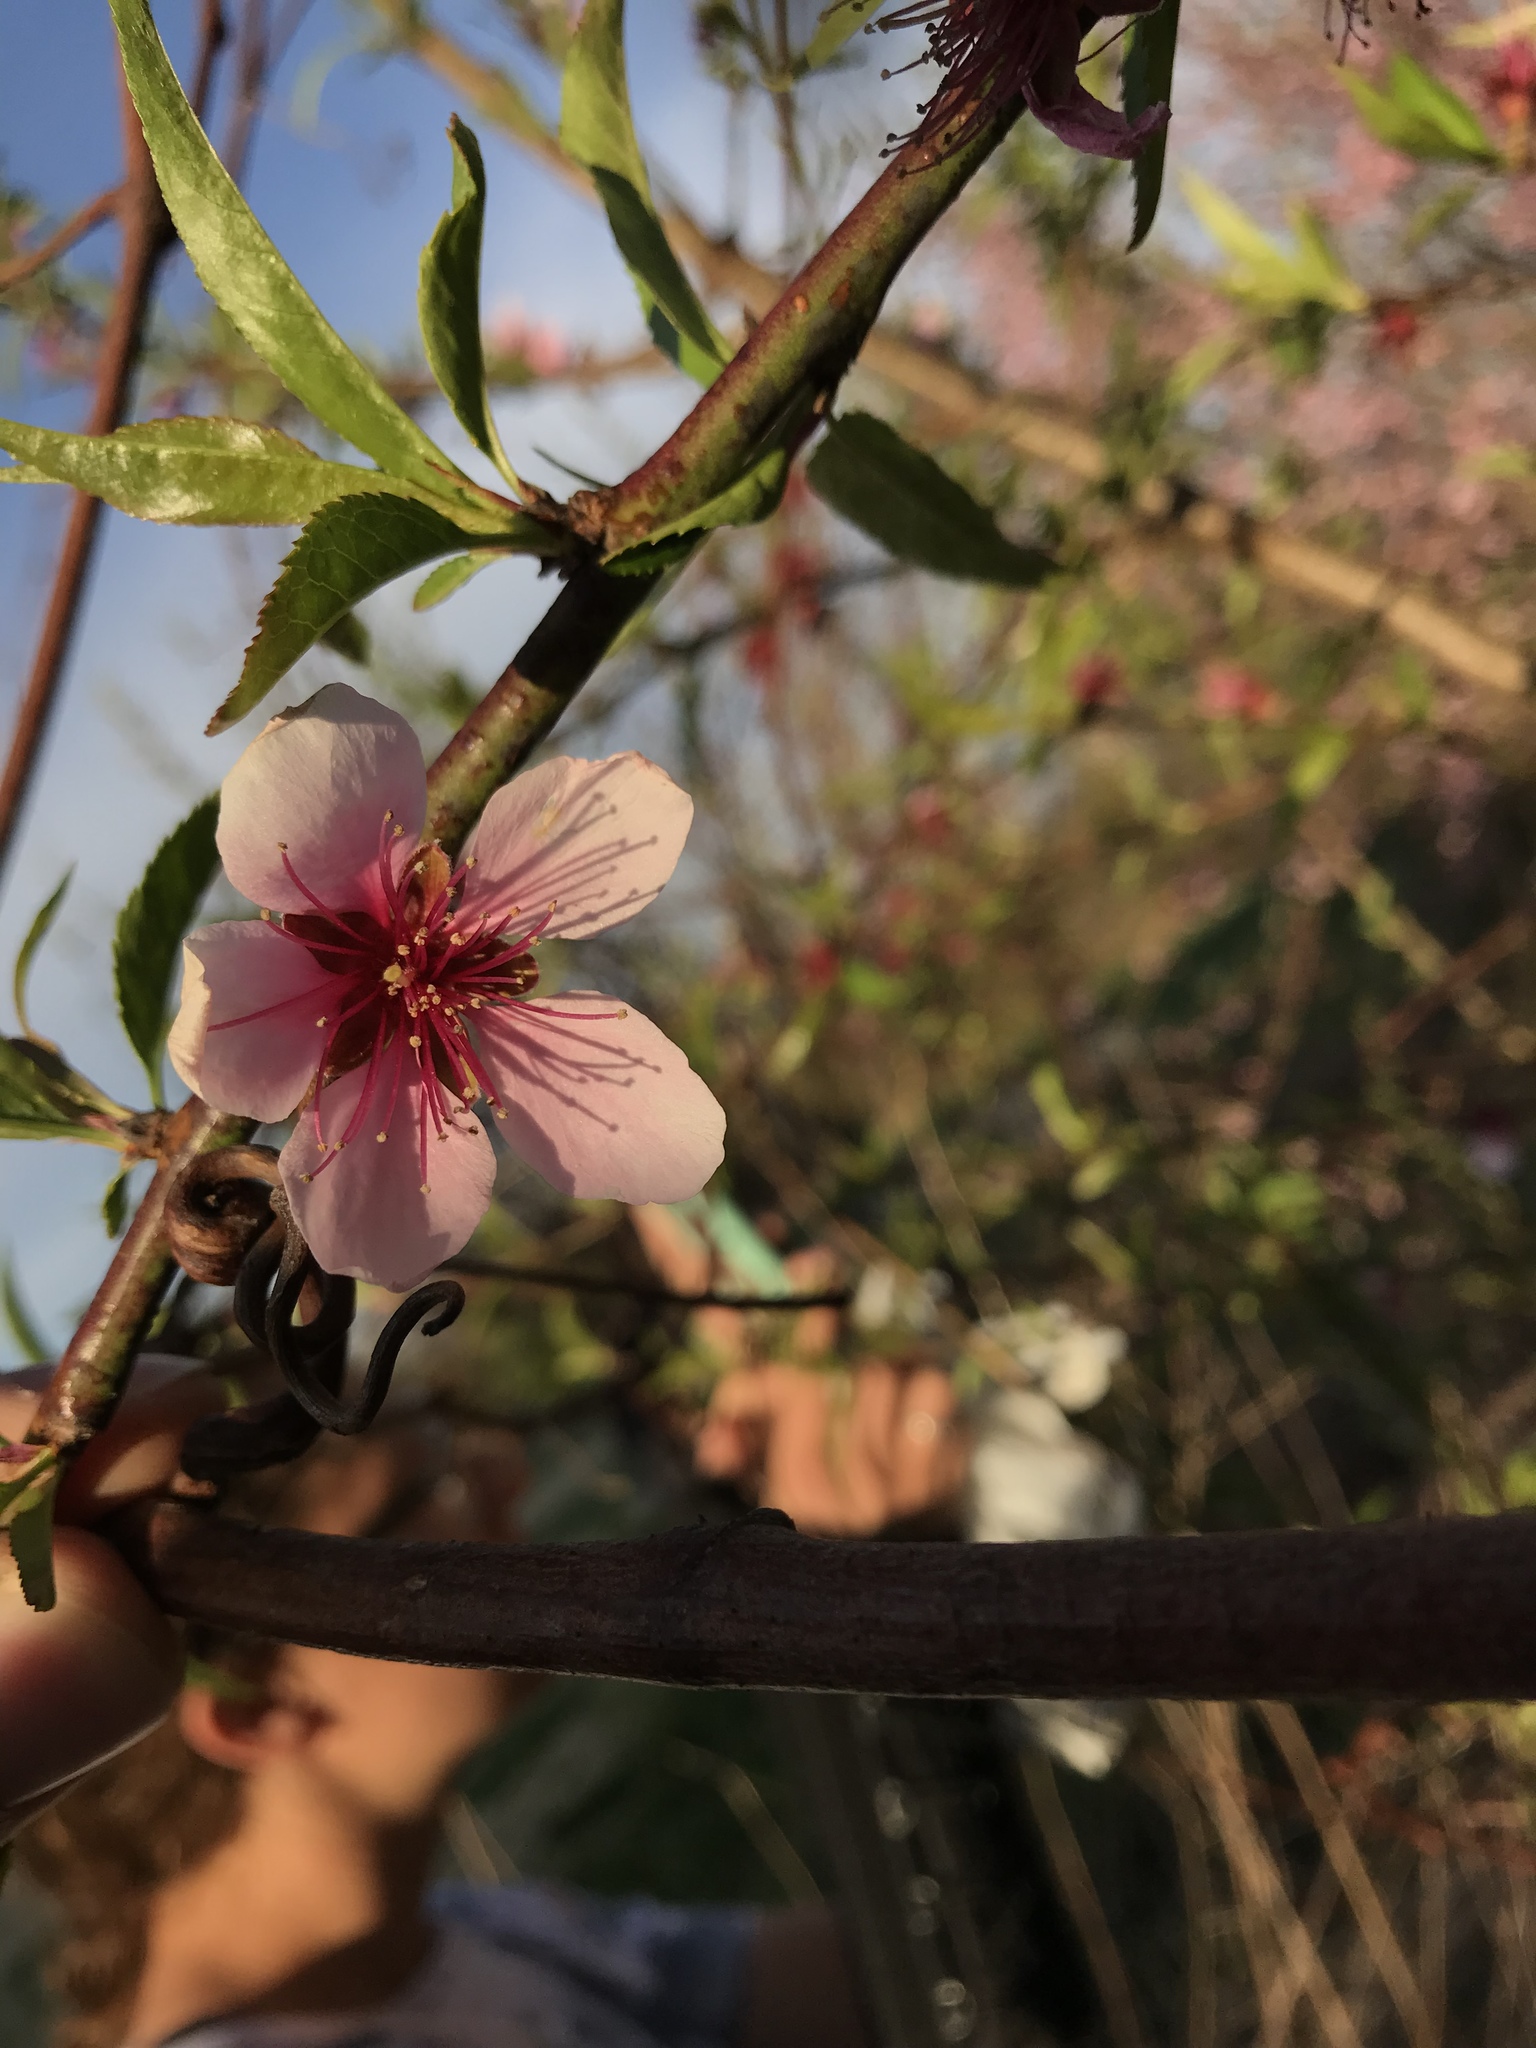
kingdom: Plantae
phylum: Tracheophyta
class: Magnoliopsida
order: Rosales
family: Rosaceae
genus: Prunus
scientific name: Prunus persica
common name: Peach
